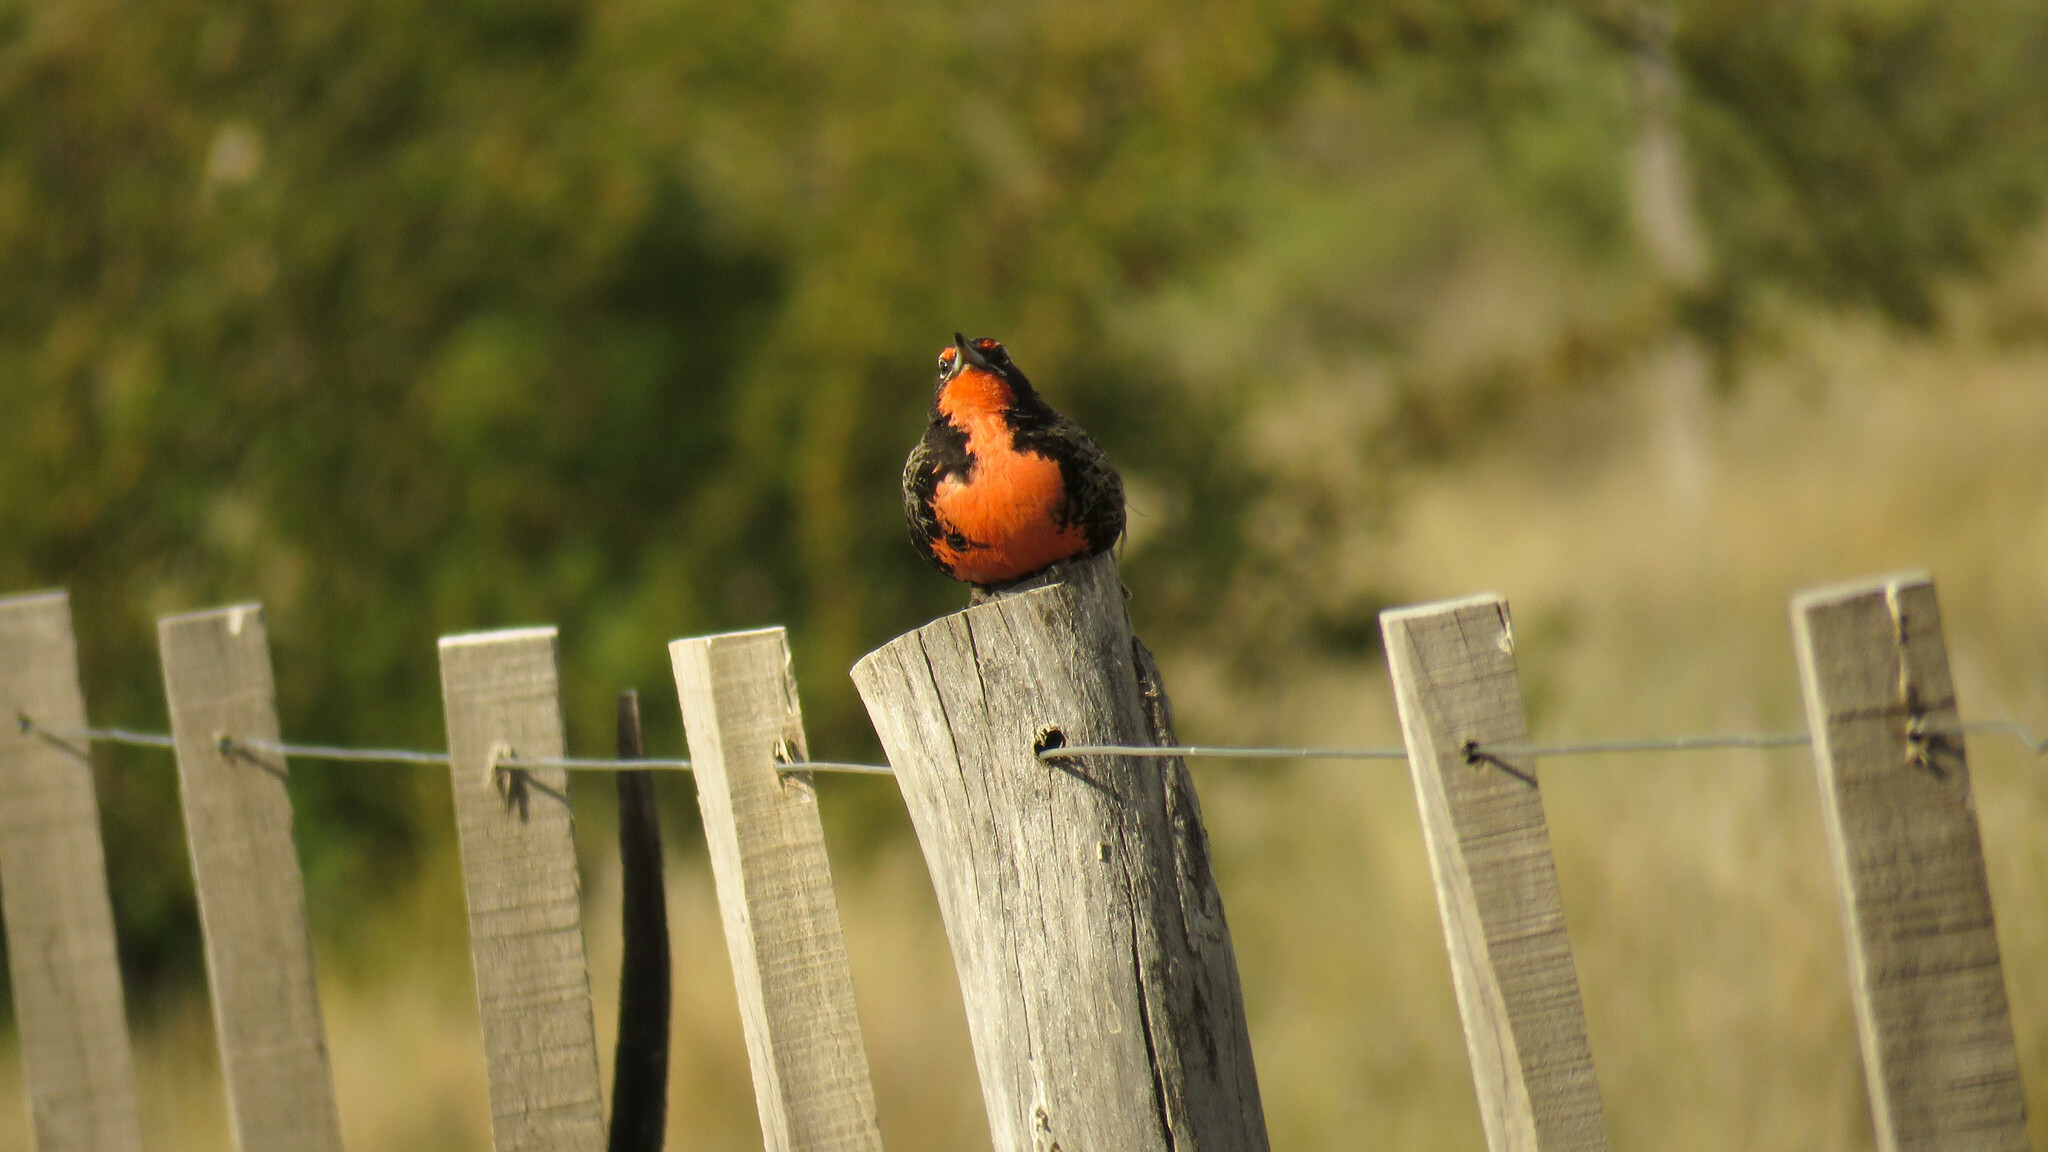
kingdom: Animalia
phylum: Chordata
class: Aves
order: Passeriformes
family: Icteridae
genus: Sturnella
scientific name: Sturnella loyca
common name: Long-tailed meadowlark
